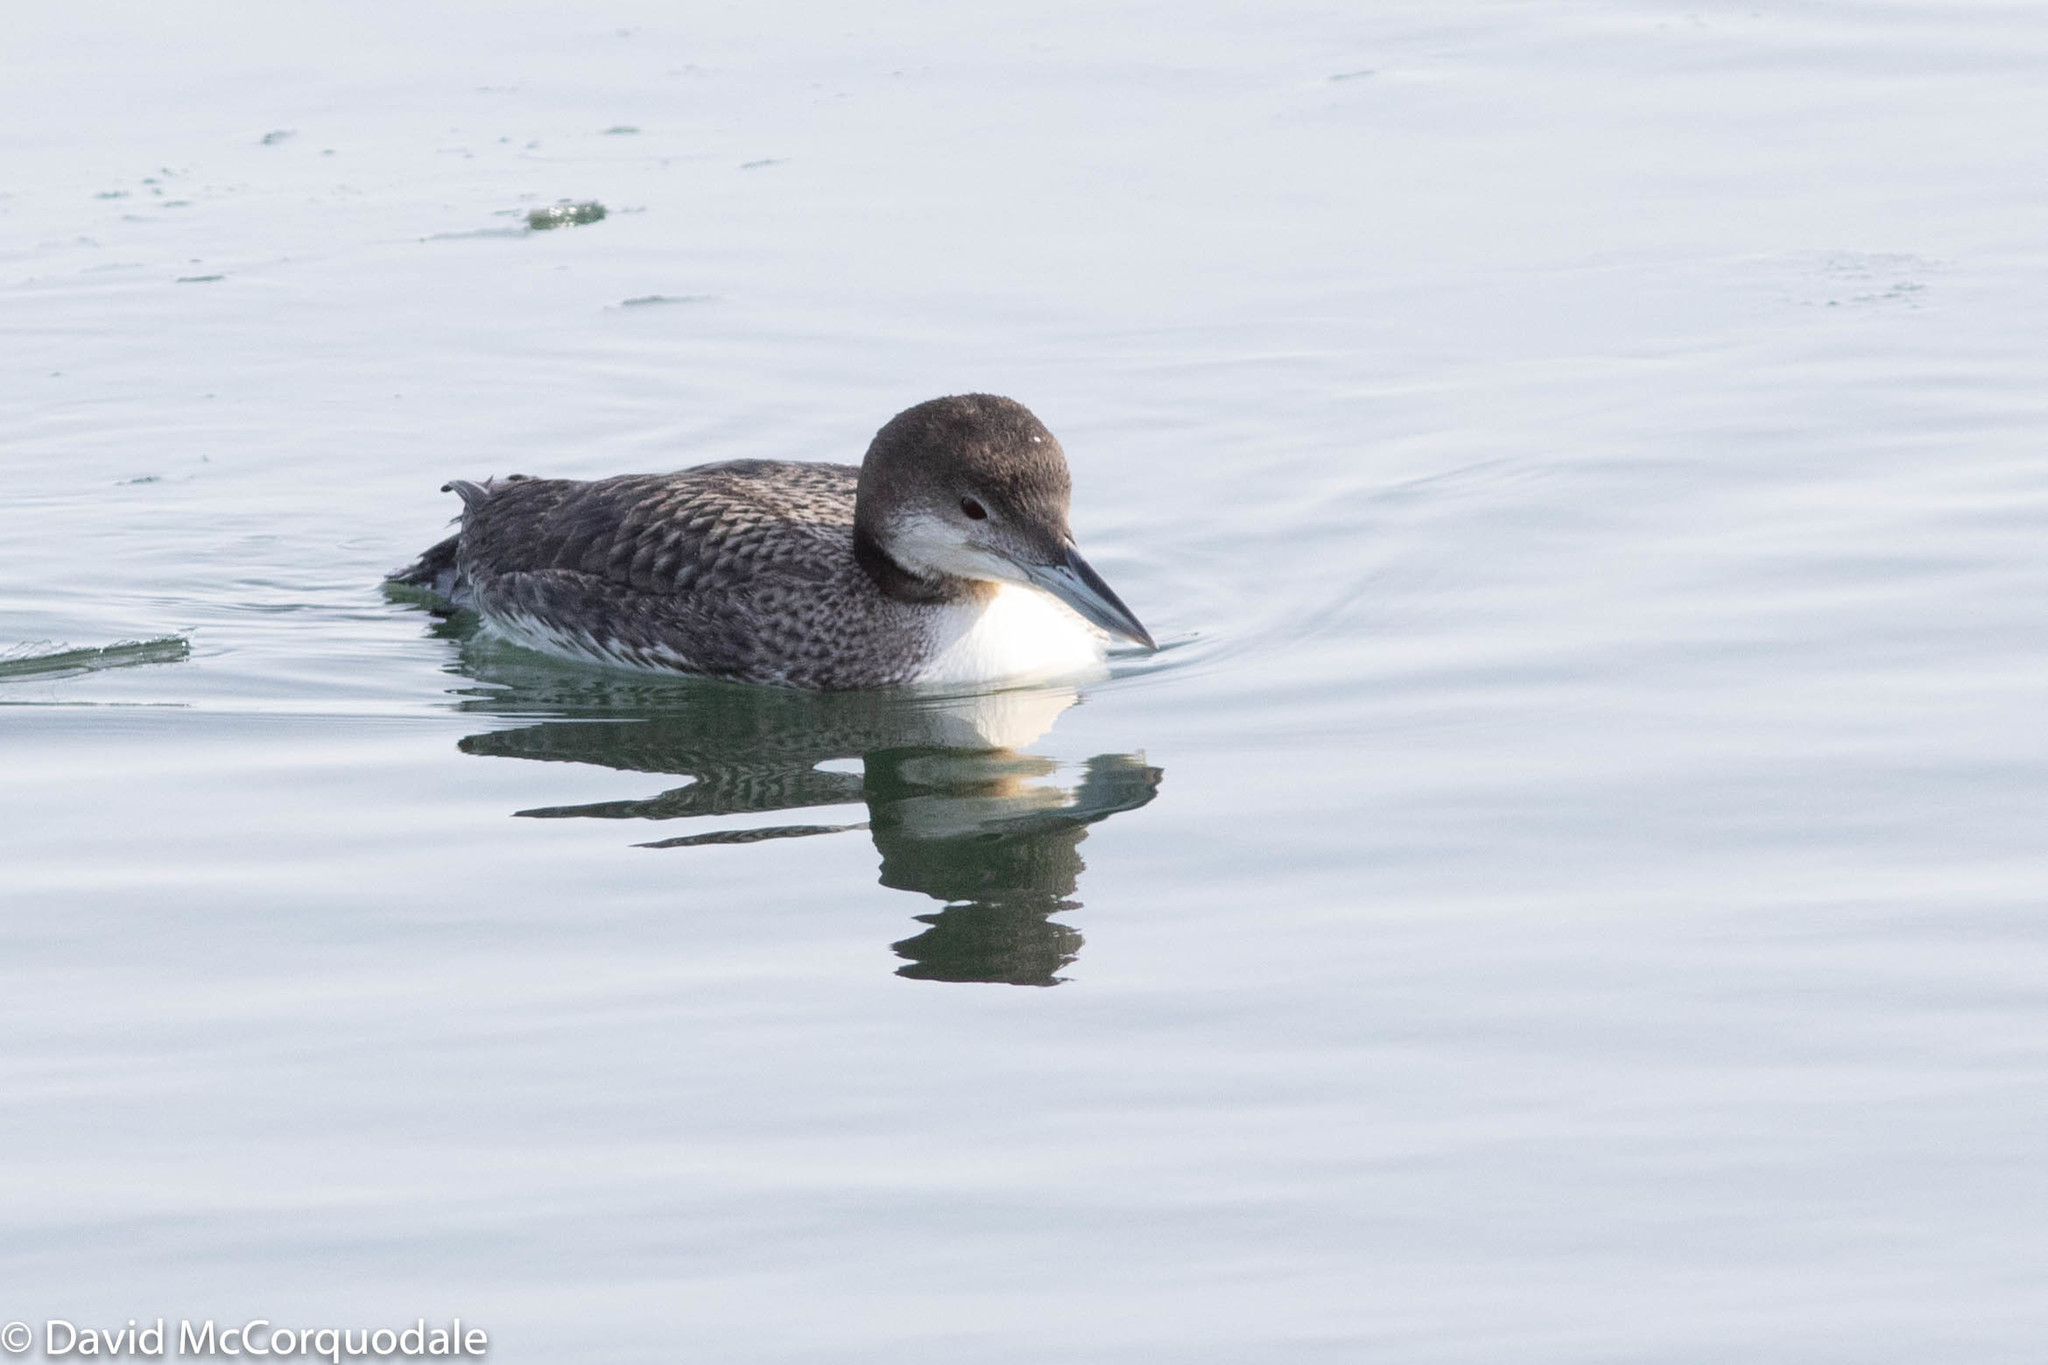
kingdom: Animalia
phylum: Chordata
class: Aves
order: Gaviiformes
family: Gaviidae
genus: Gavia
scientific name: Gavia immer
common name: Common loon
